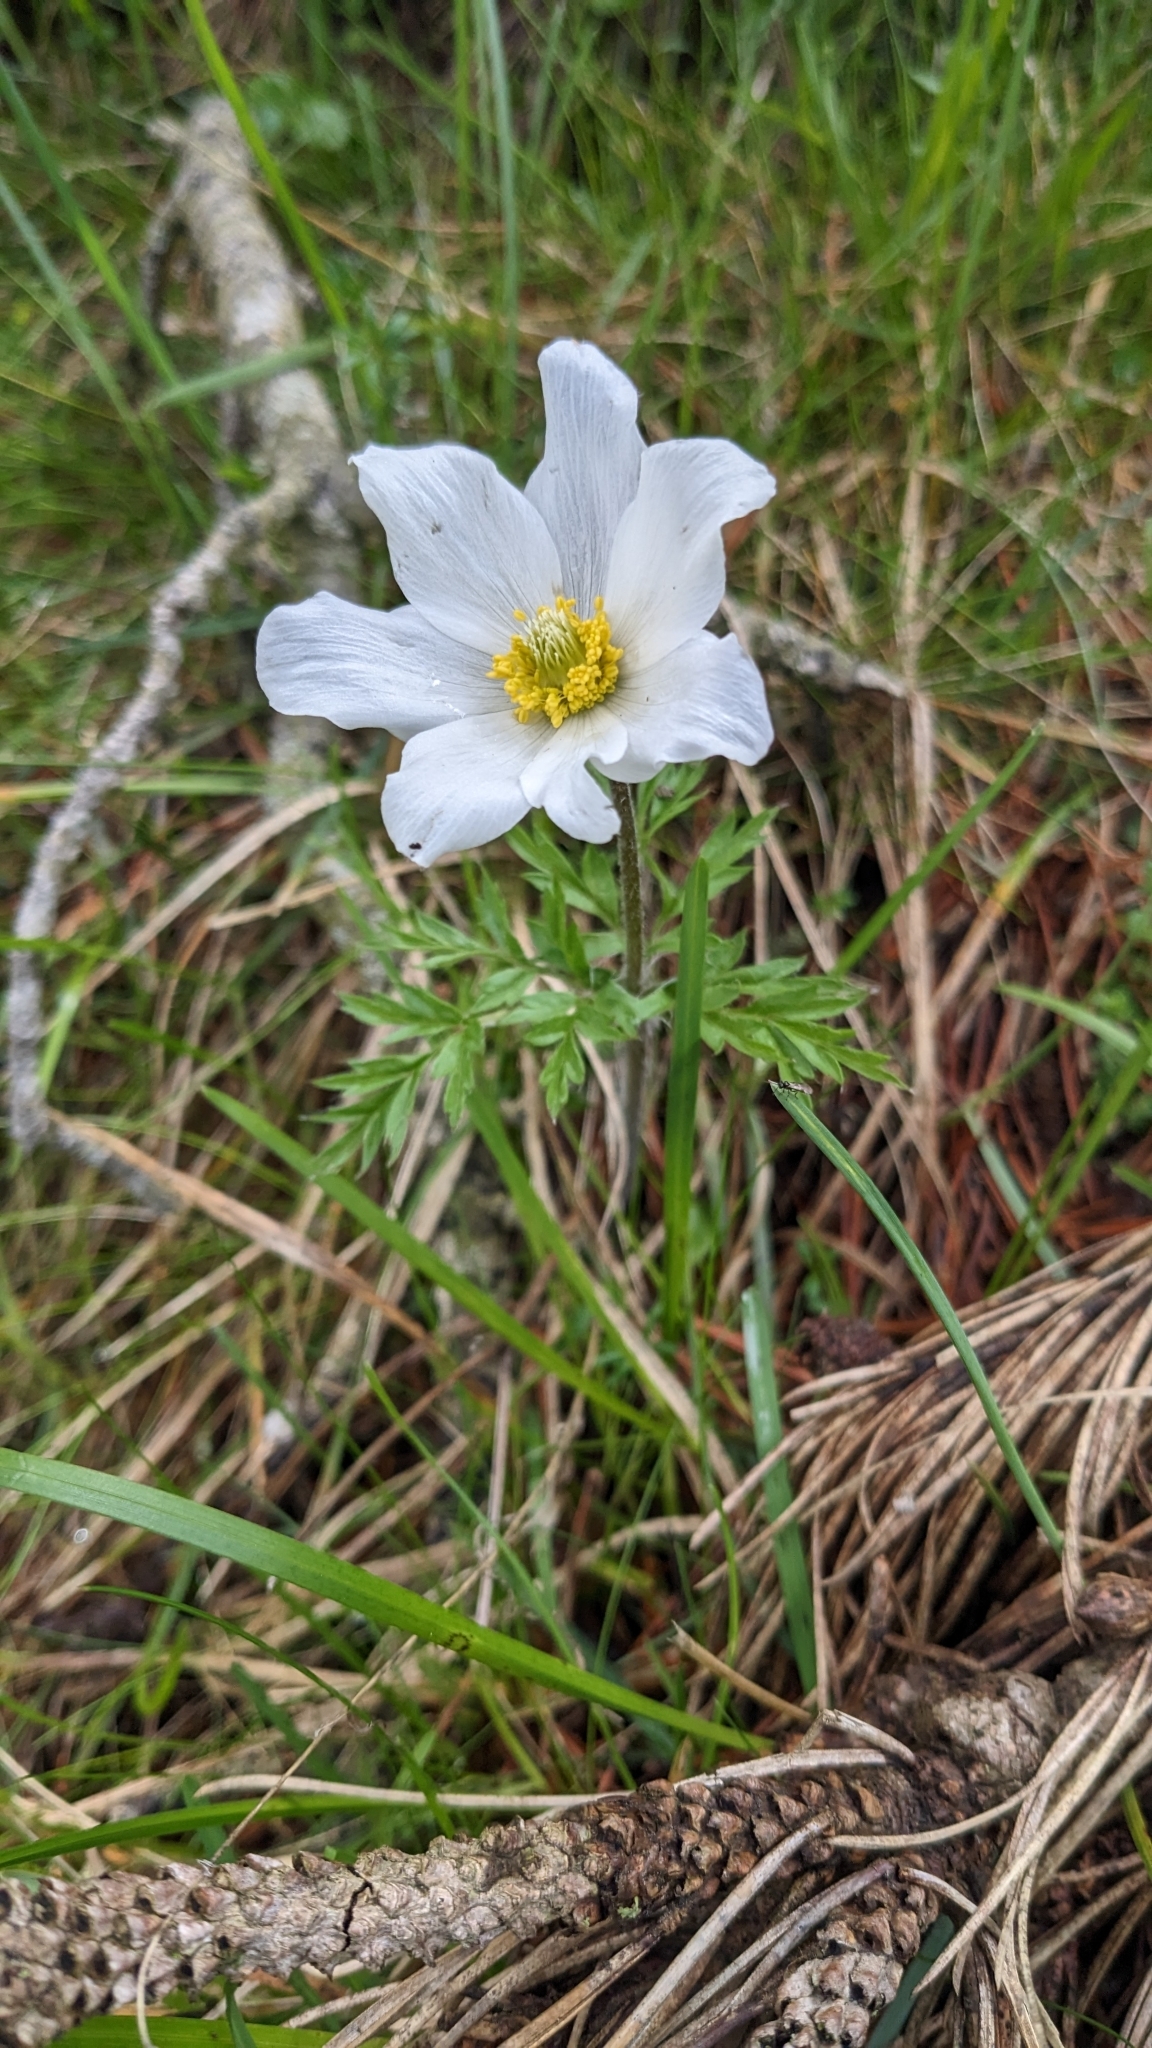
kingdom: Plantae
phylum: Tracheophyta
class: Magnoliopsida
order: Ranunculales
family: Ranunculaceae
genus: Pulsatilla
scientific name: Pulsatilla alpina
